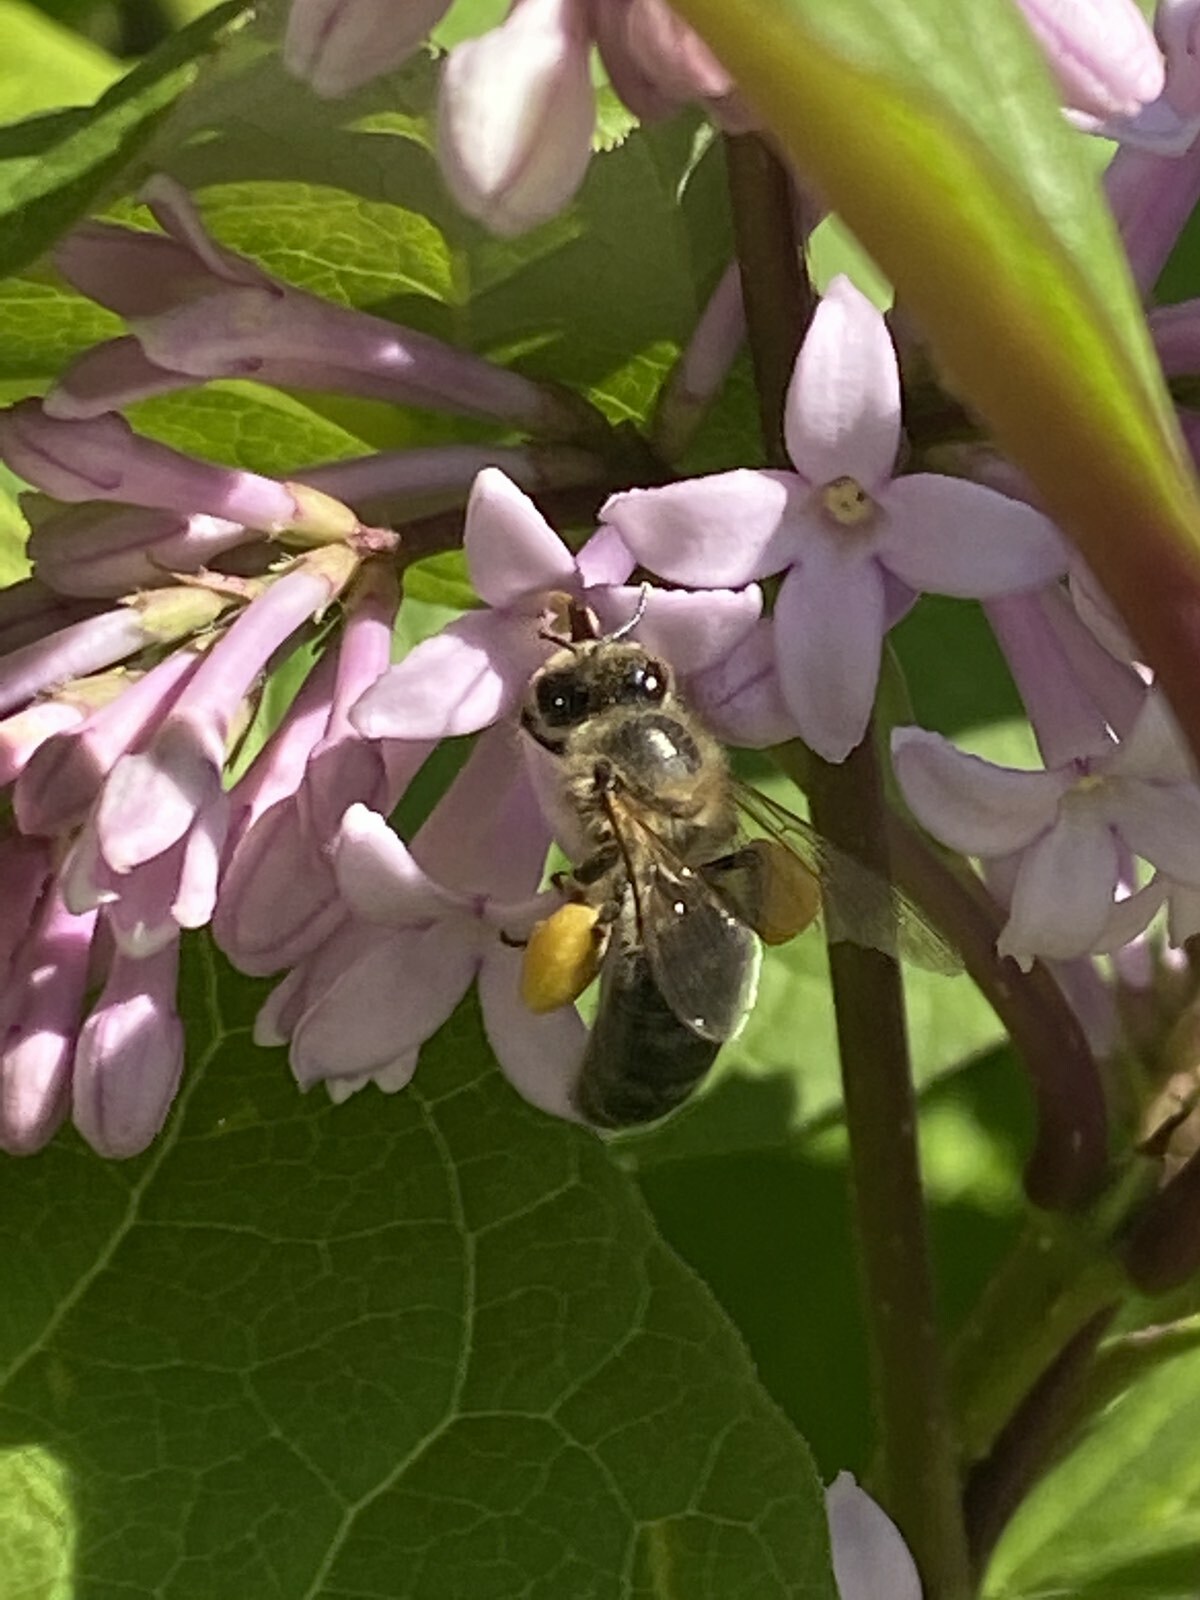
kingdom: Animalia
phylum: Arthropoda
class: Insecta
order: Hymenoptera
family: Apidae
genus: Apis
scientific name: Apis mellifera
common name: Honey bee
